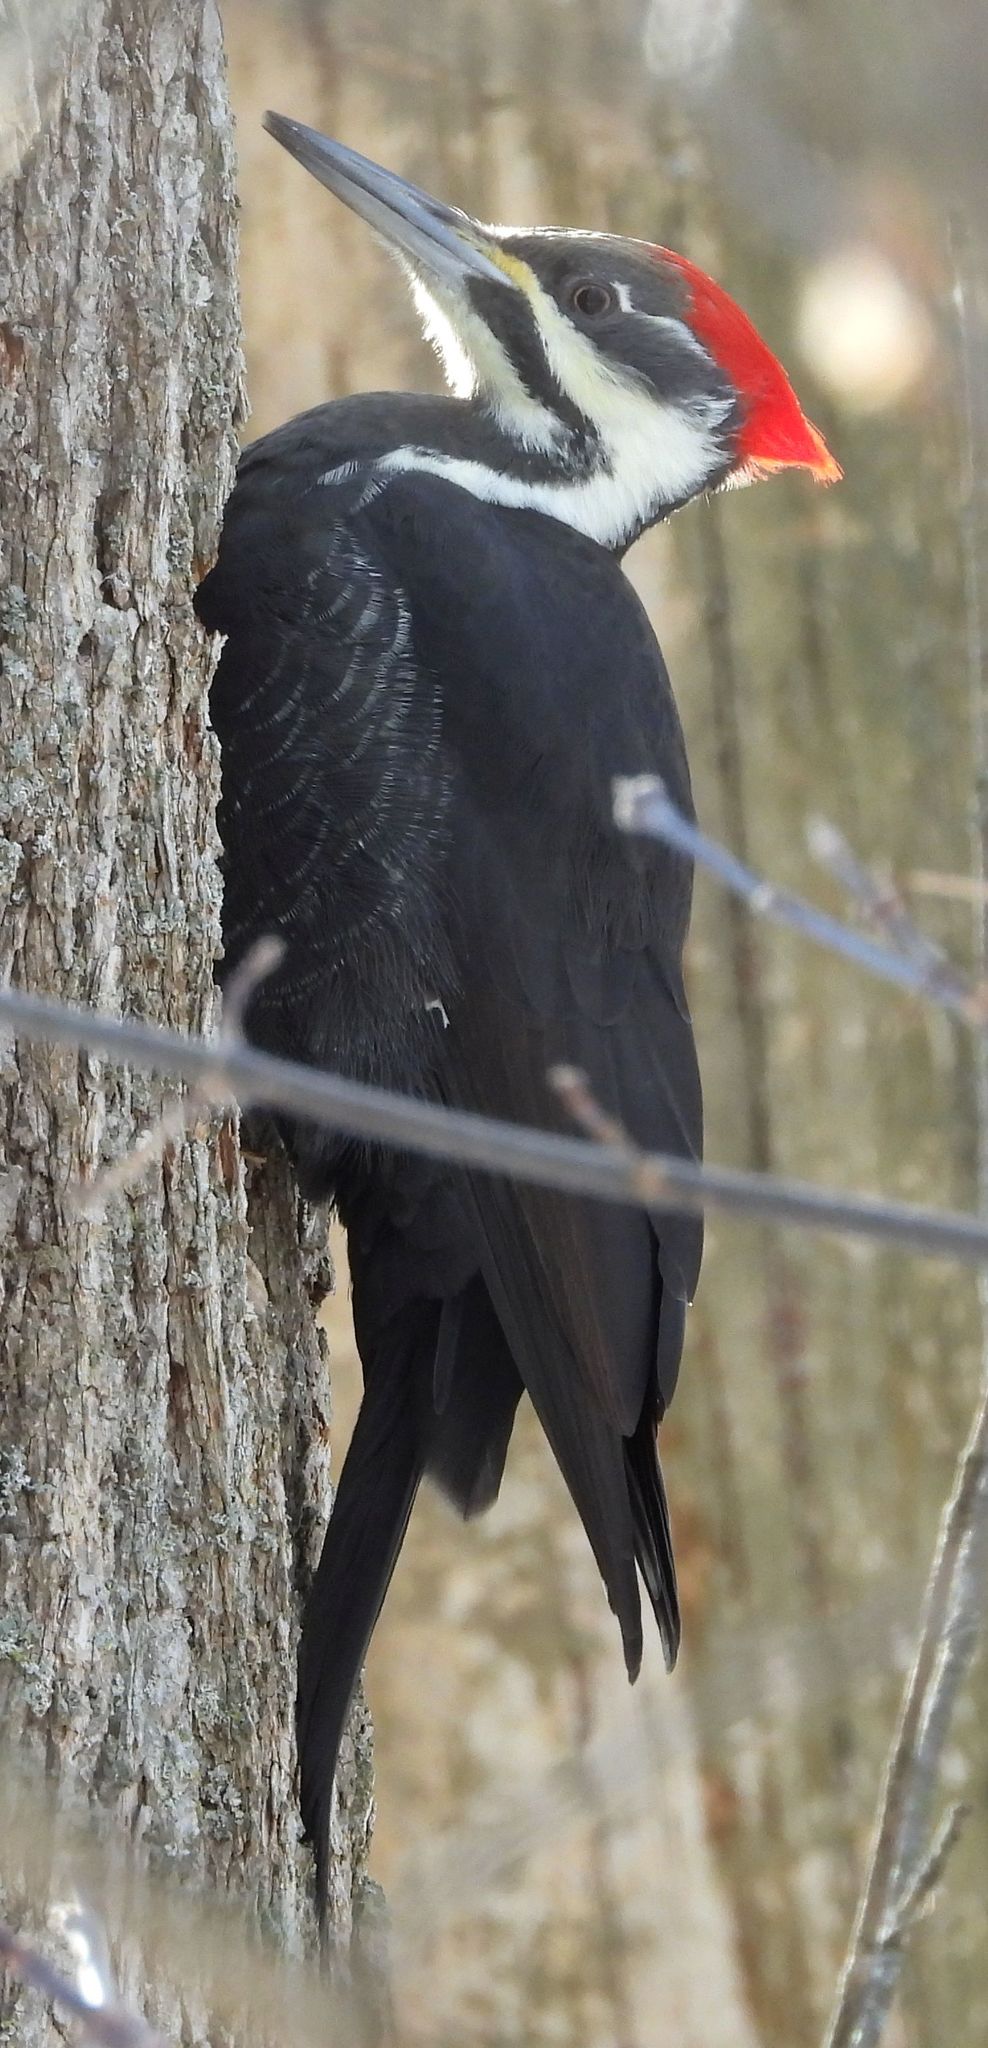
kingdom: Animalia
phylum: Chordata
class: Aves
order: Piciformes
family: Picidae
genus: Dryocopus
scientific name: Dryocopus pileatus
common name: Pileated woodpecker
